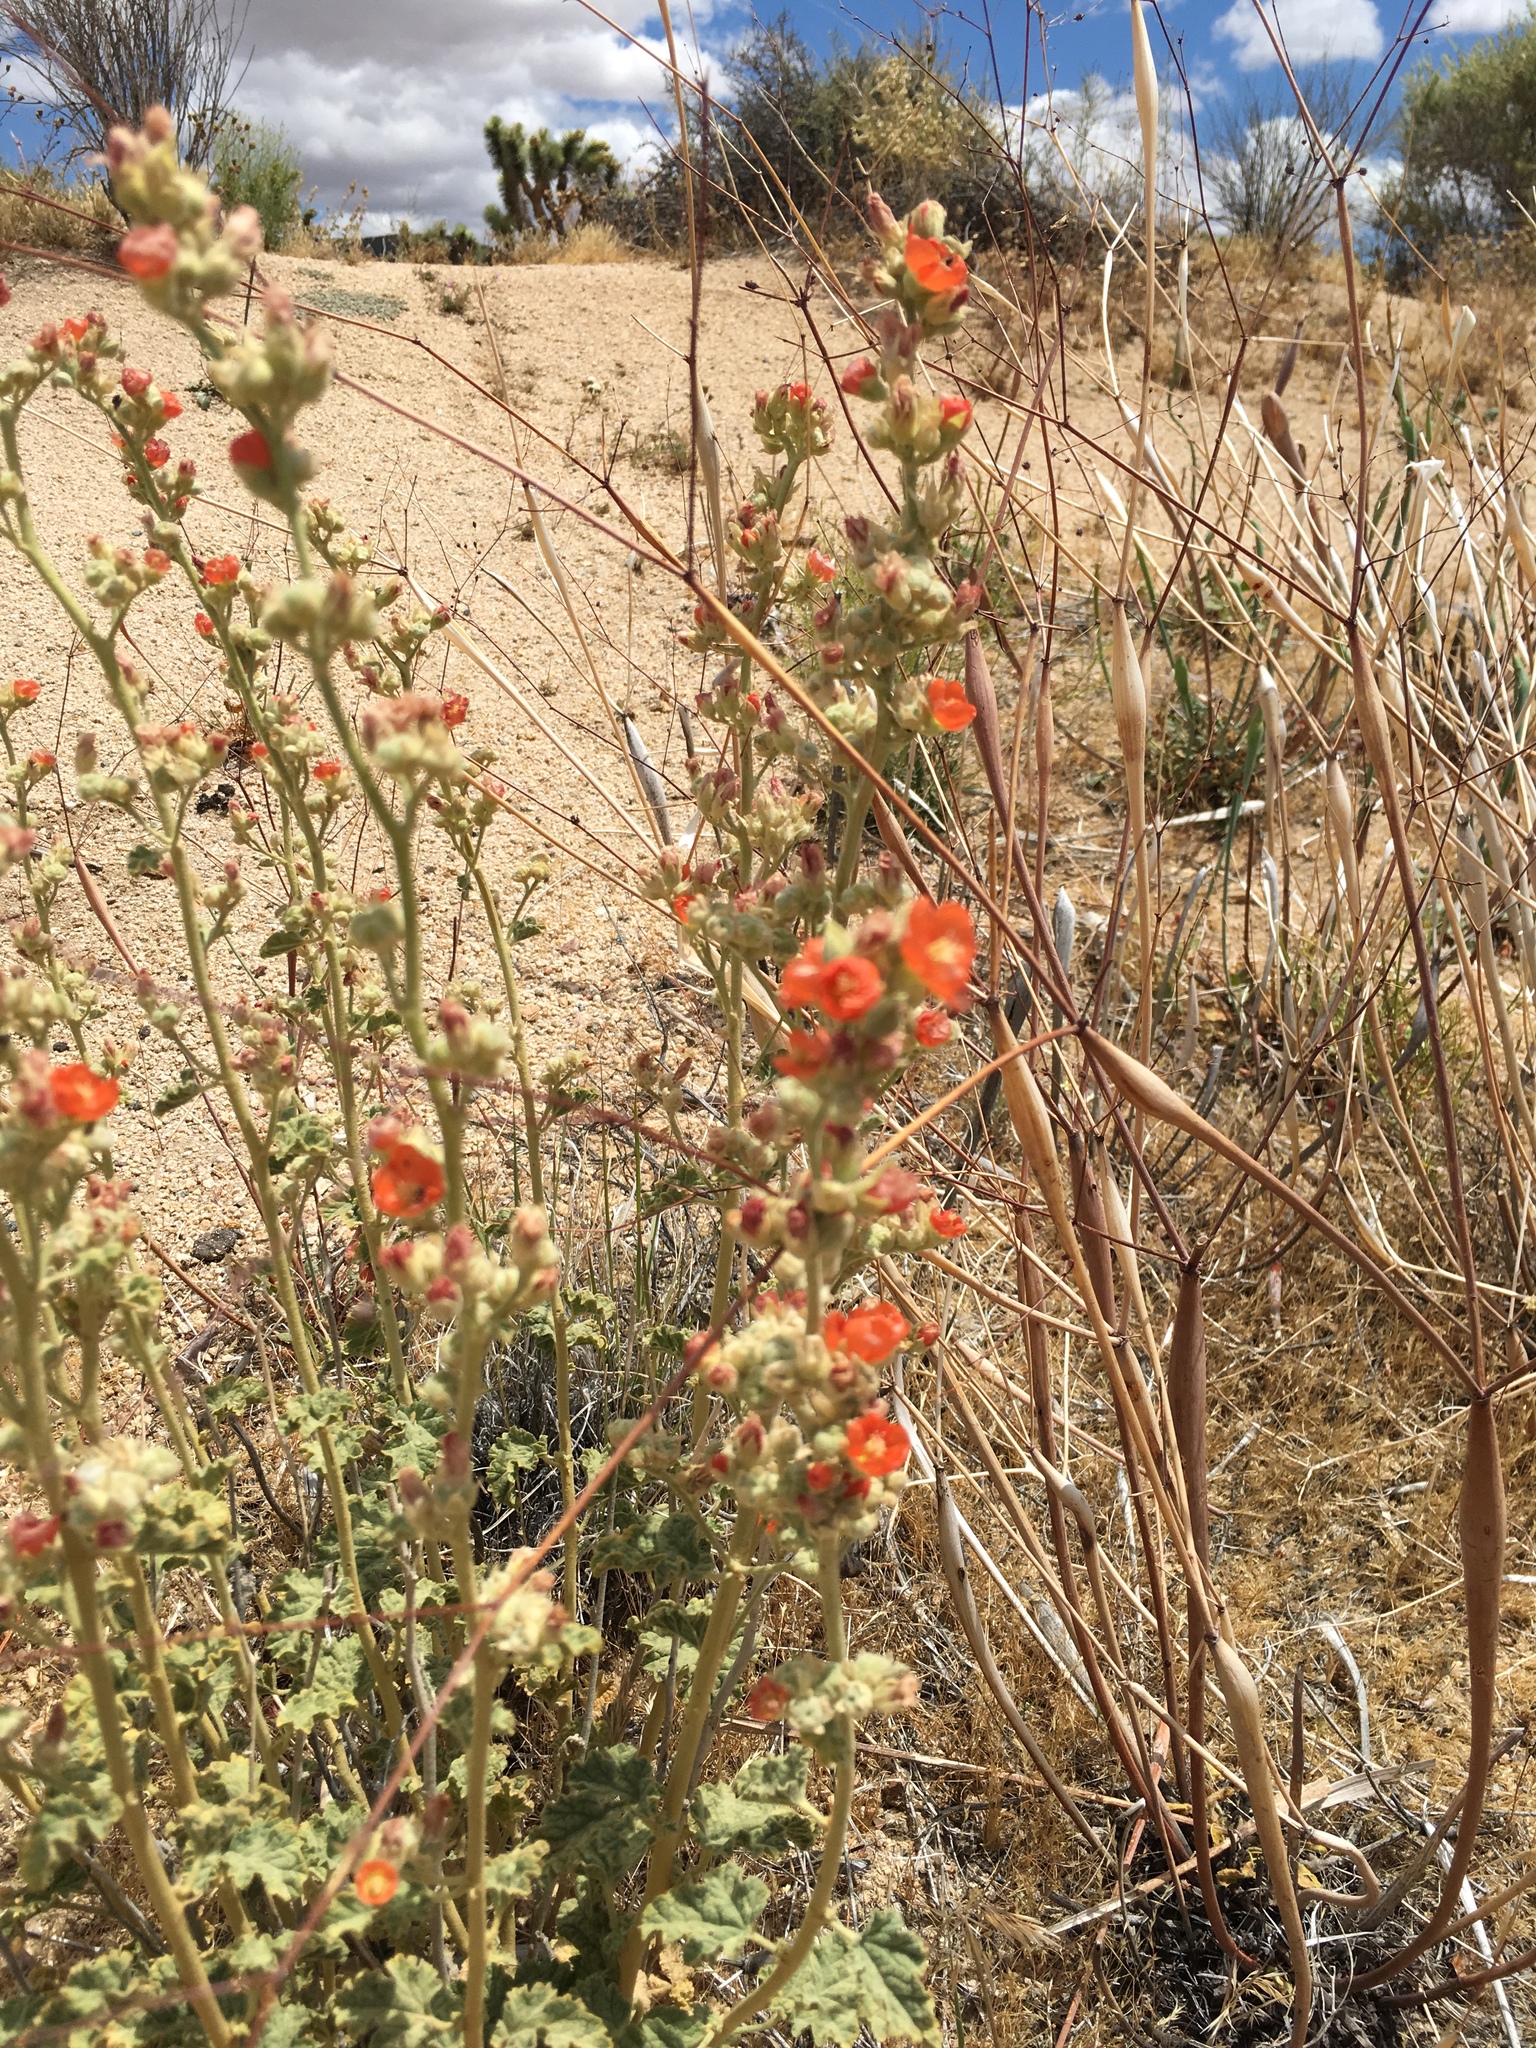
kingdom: Plantae
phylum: Tracheophyta
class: Magnoliopsida
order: Malvales
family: Malvaceae
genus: Sphaeralcea
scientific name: Sphaeralcea ambigua
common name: Apricot globe-mallow
